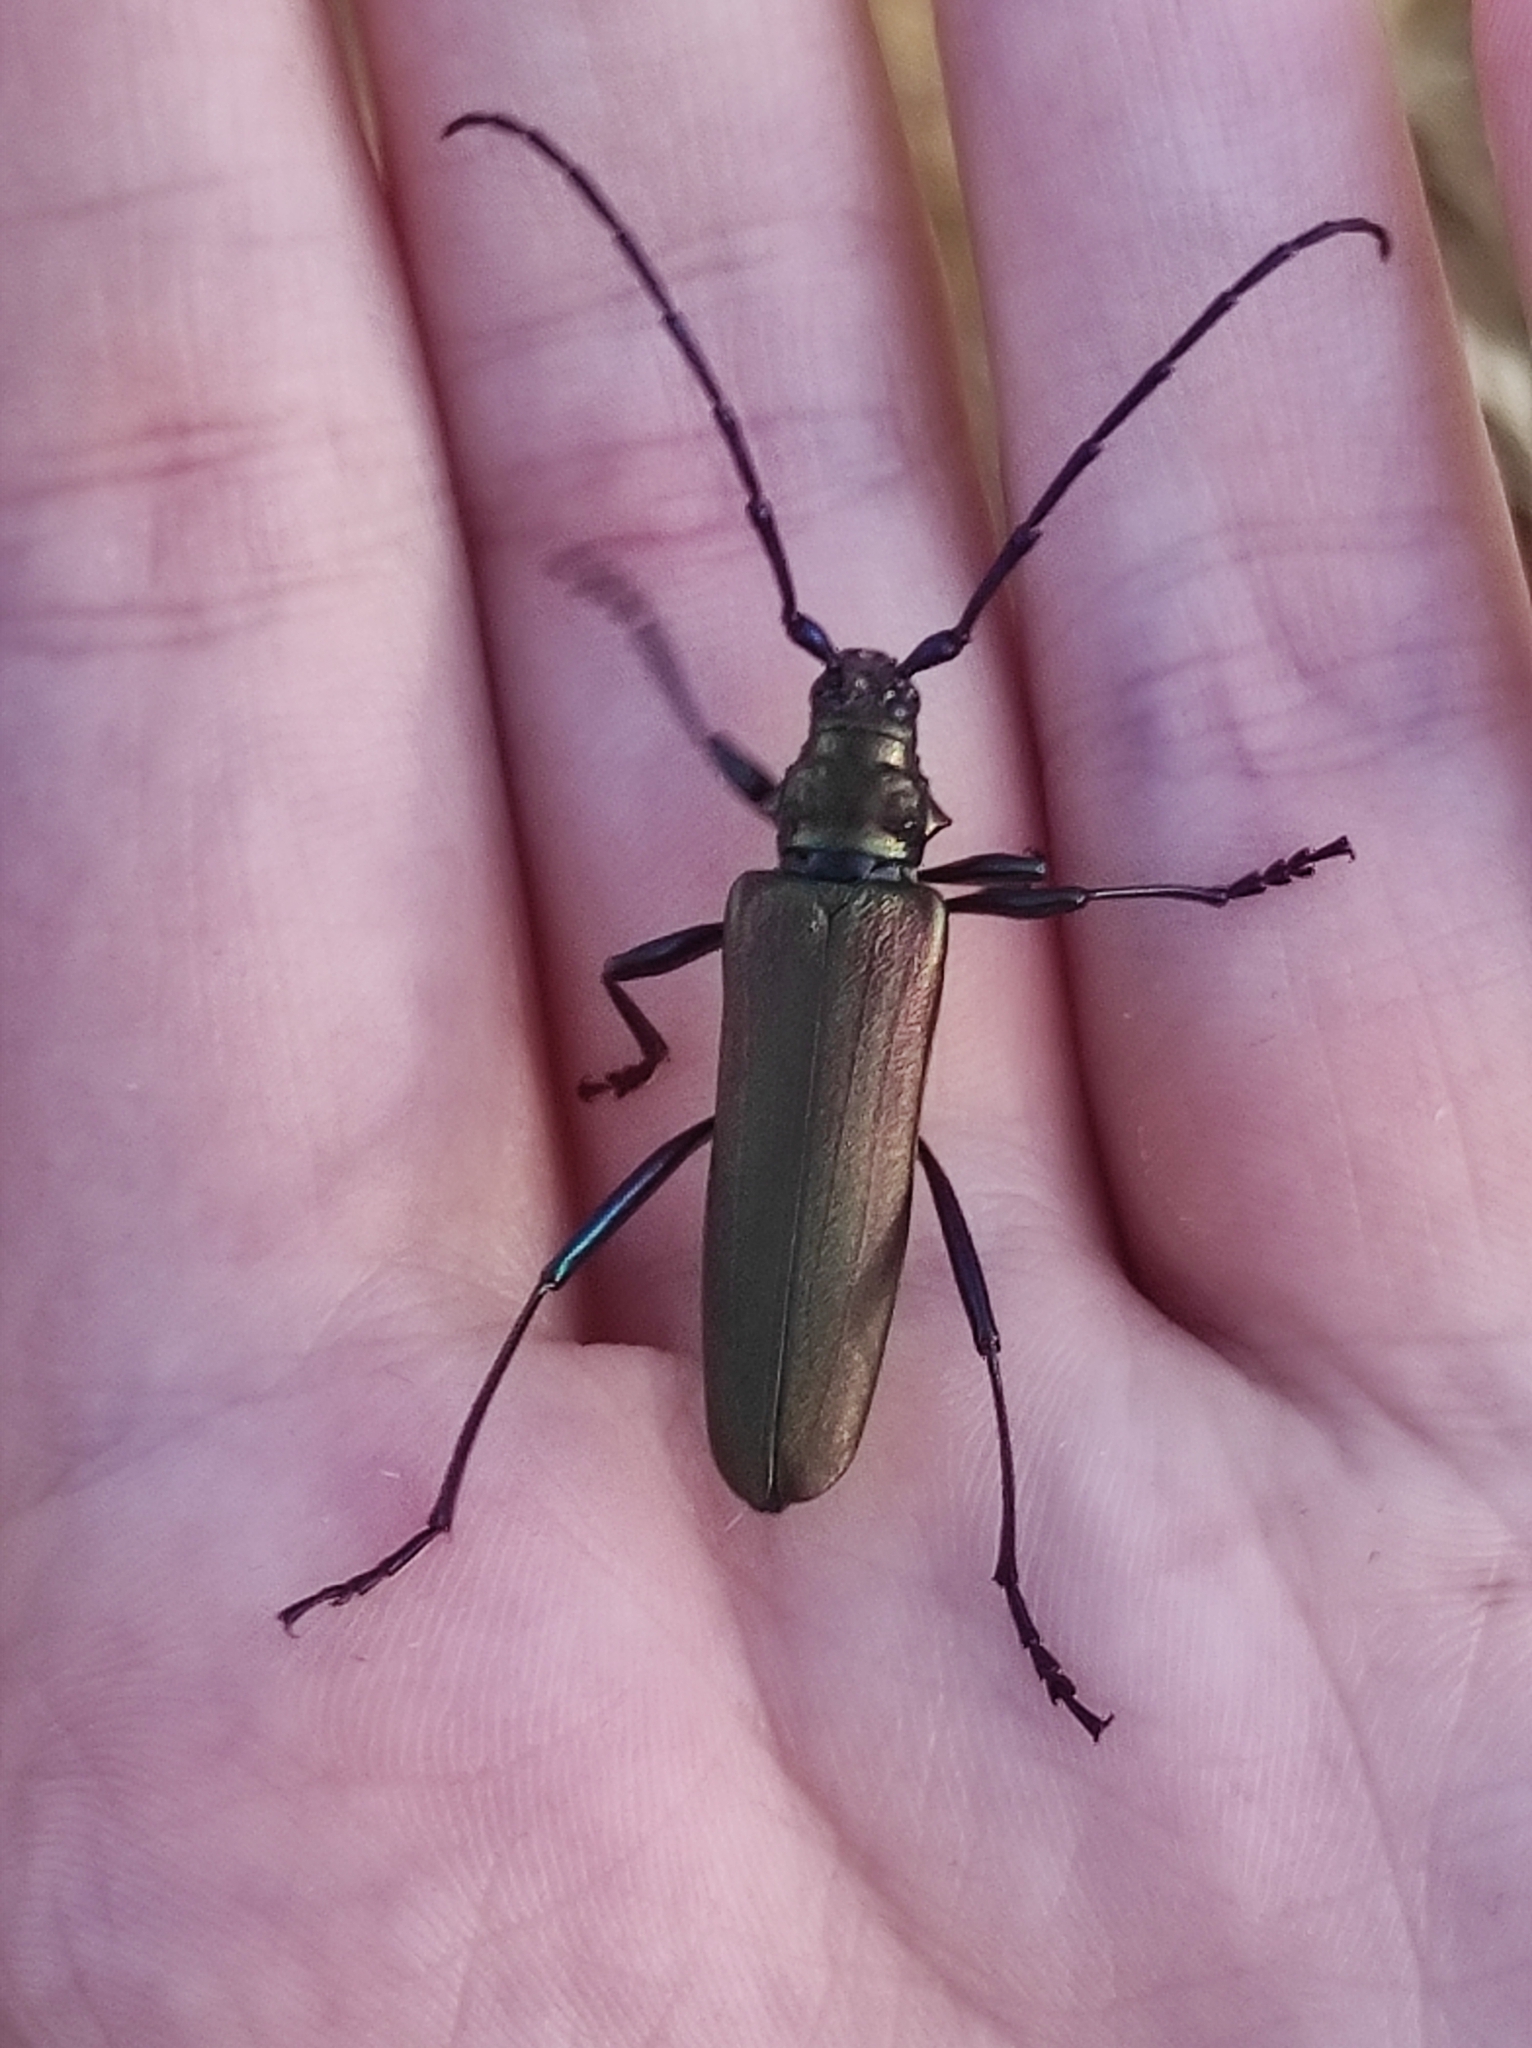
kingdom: Animalia
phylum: Arthropoda
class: Insecta
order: Coleoptera
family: Cerambycidae
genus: Aromia
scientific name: Aromia moschata
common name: Musk beetle
